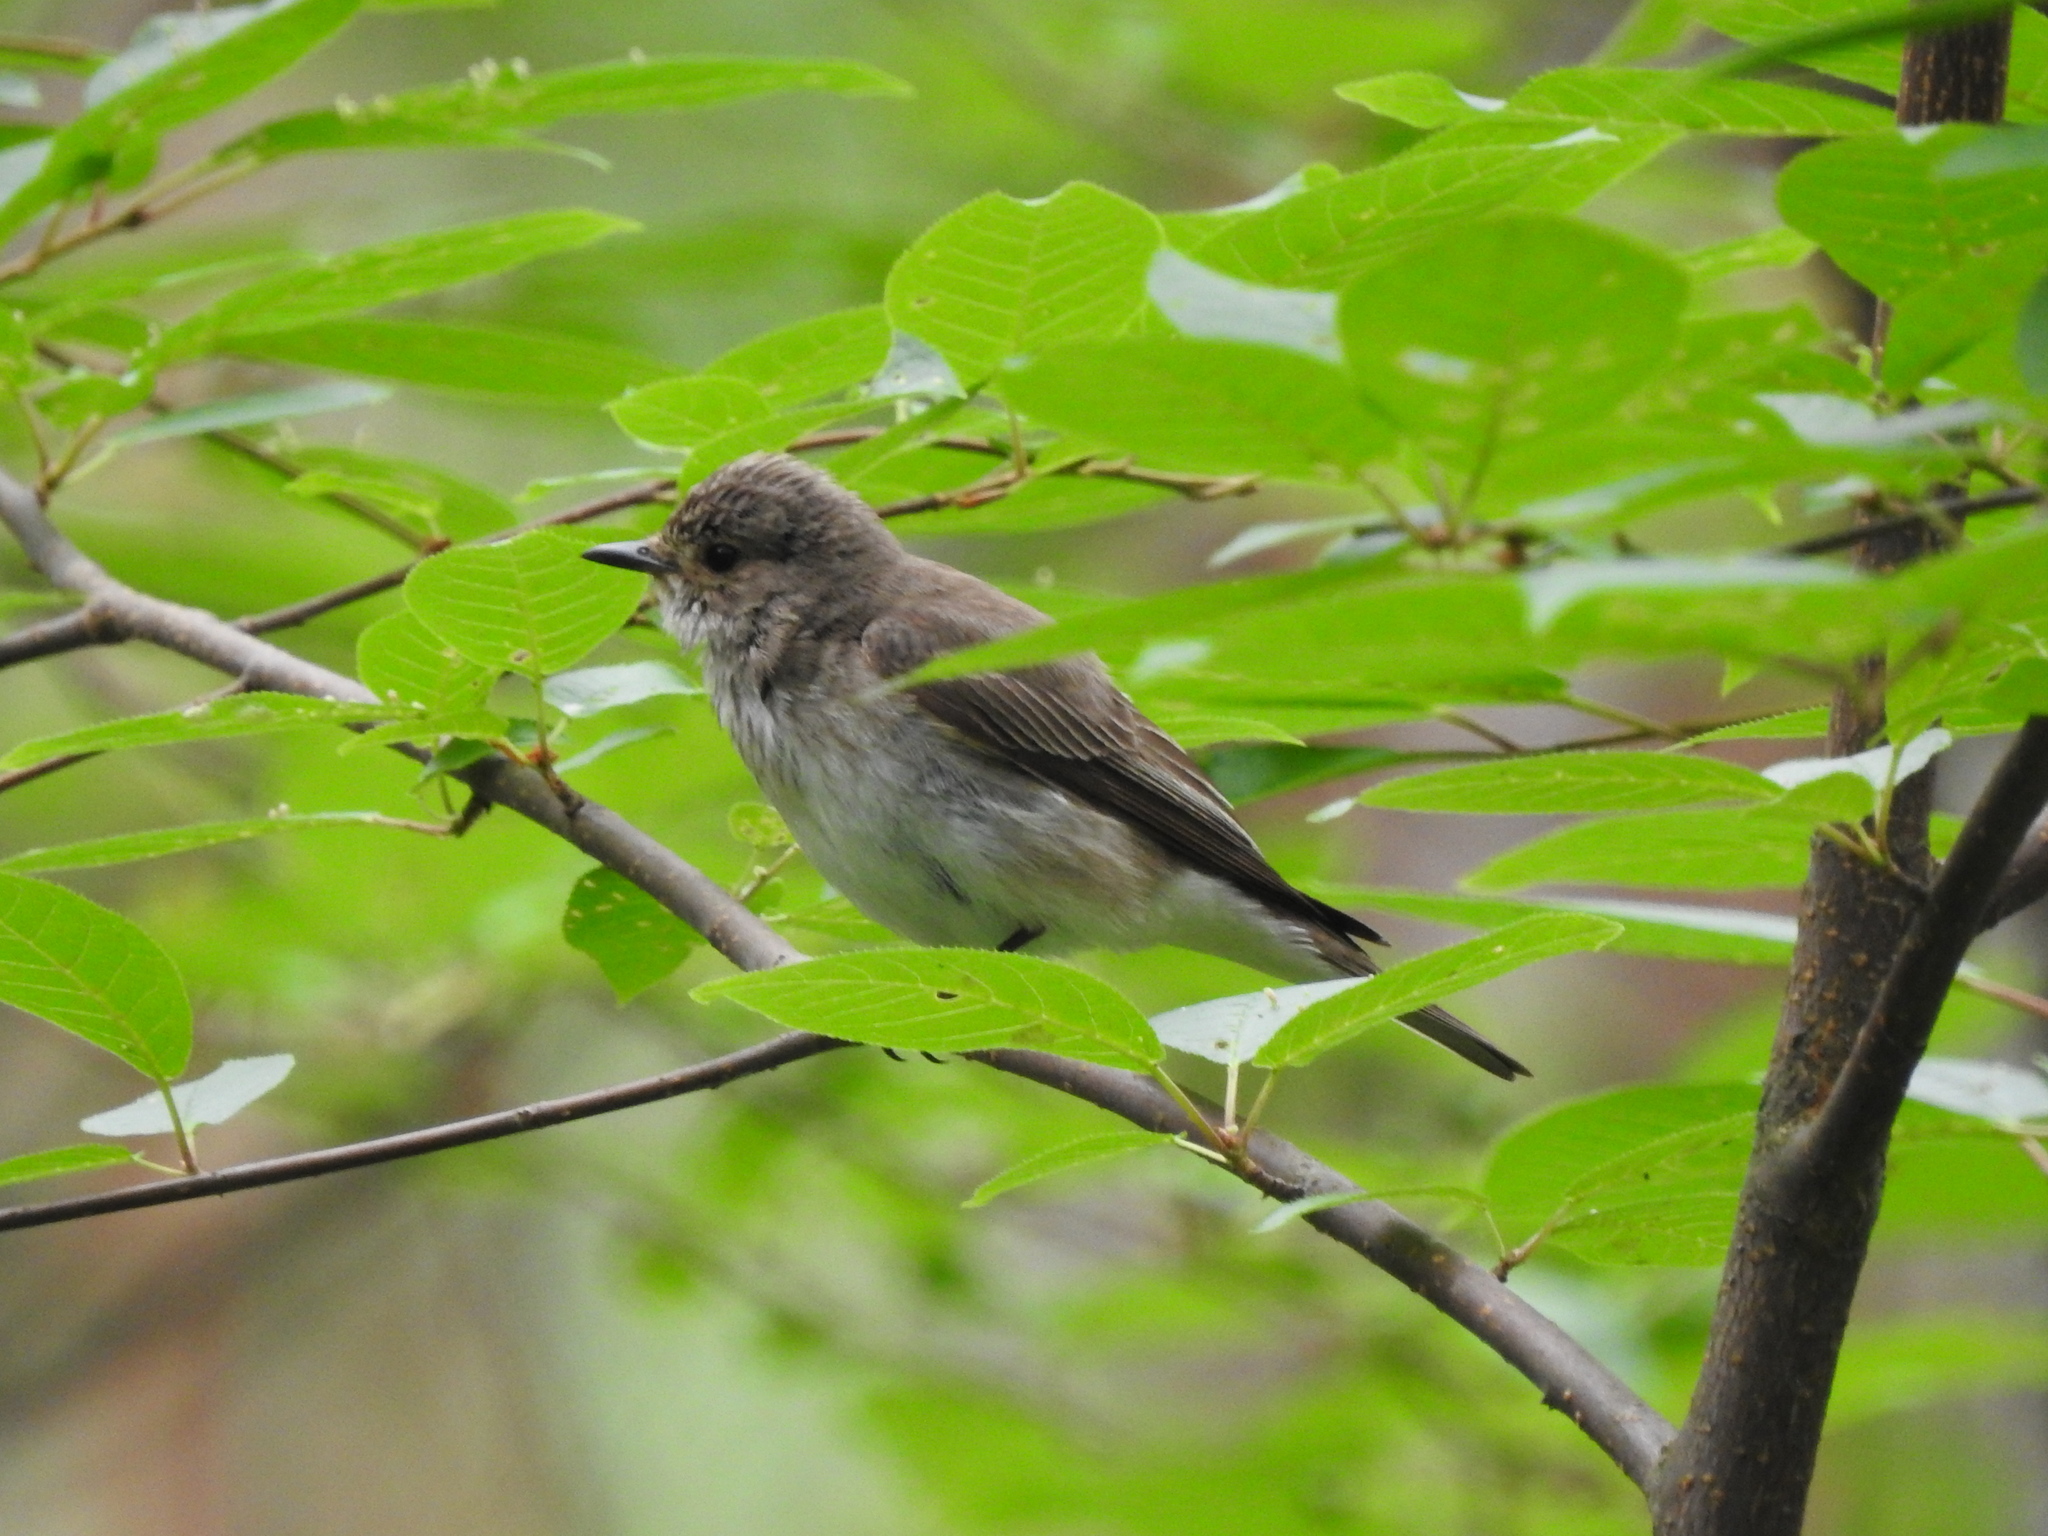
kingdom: Animalia
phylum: Chordata
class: Aves
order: Passeriformes
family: Muscicapidae
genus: Muscicapa
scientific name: Muscicapa striata
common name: Spotted flycatcher
